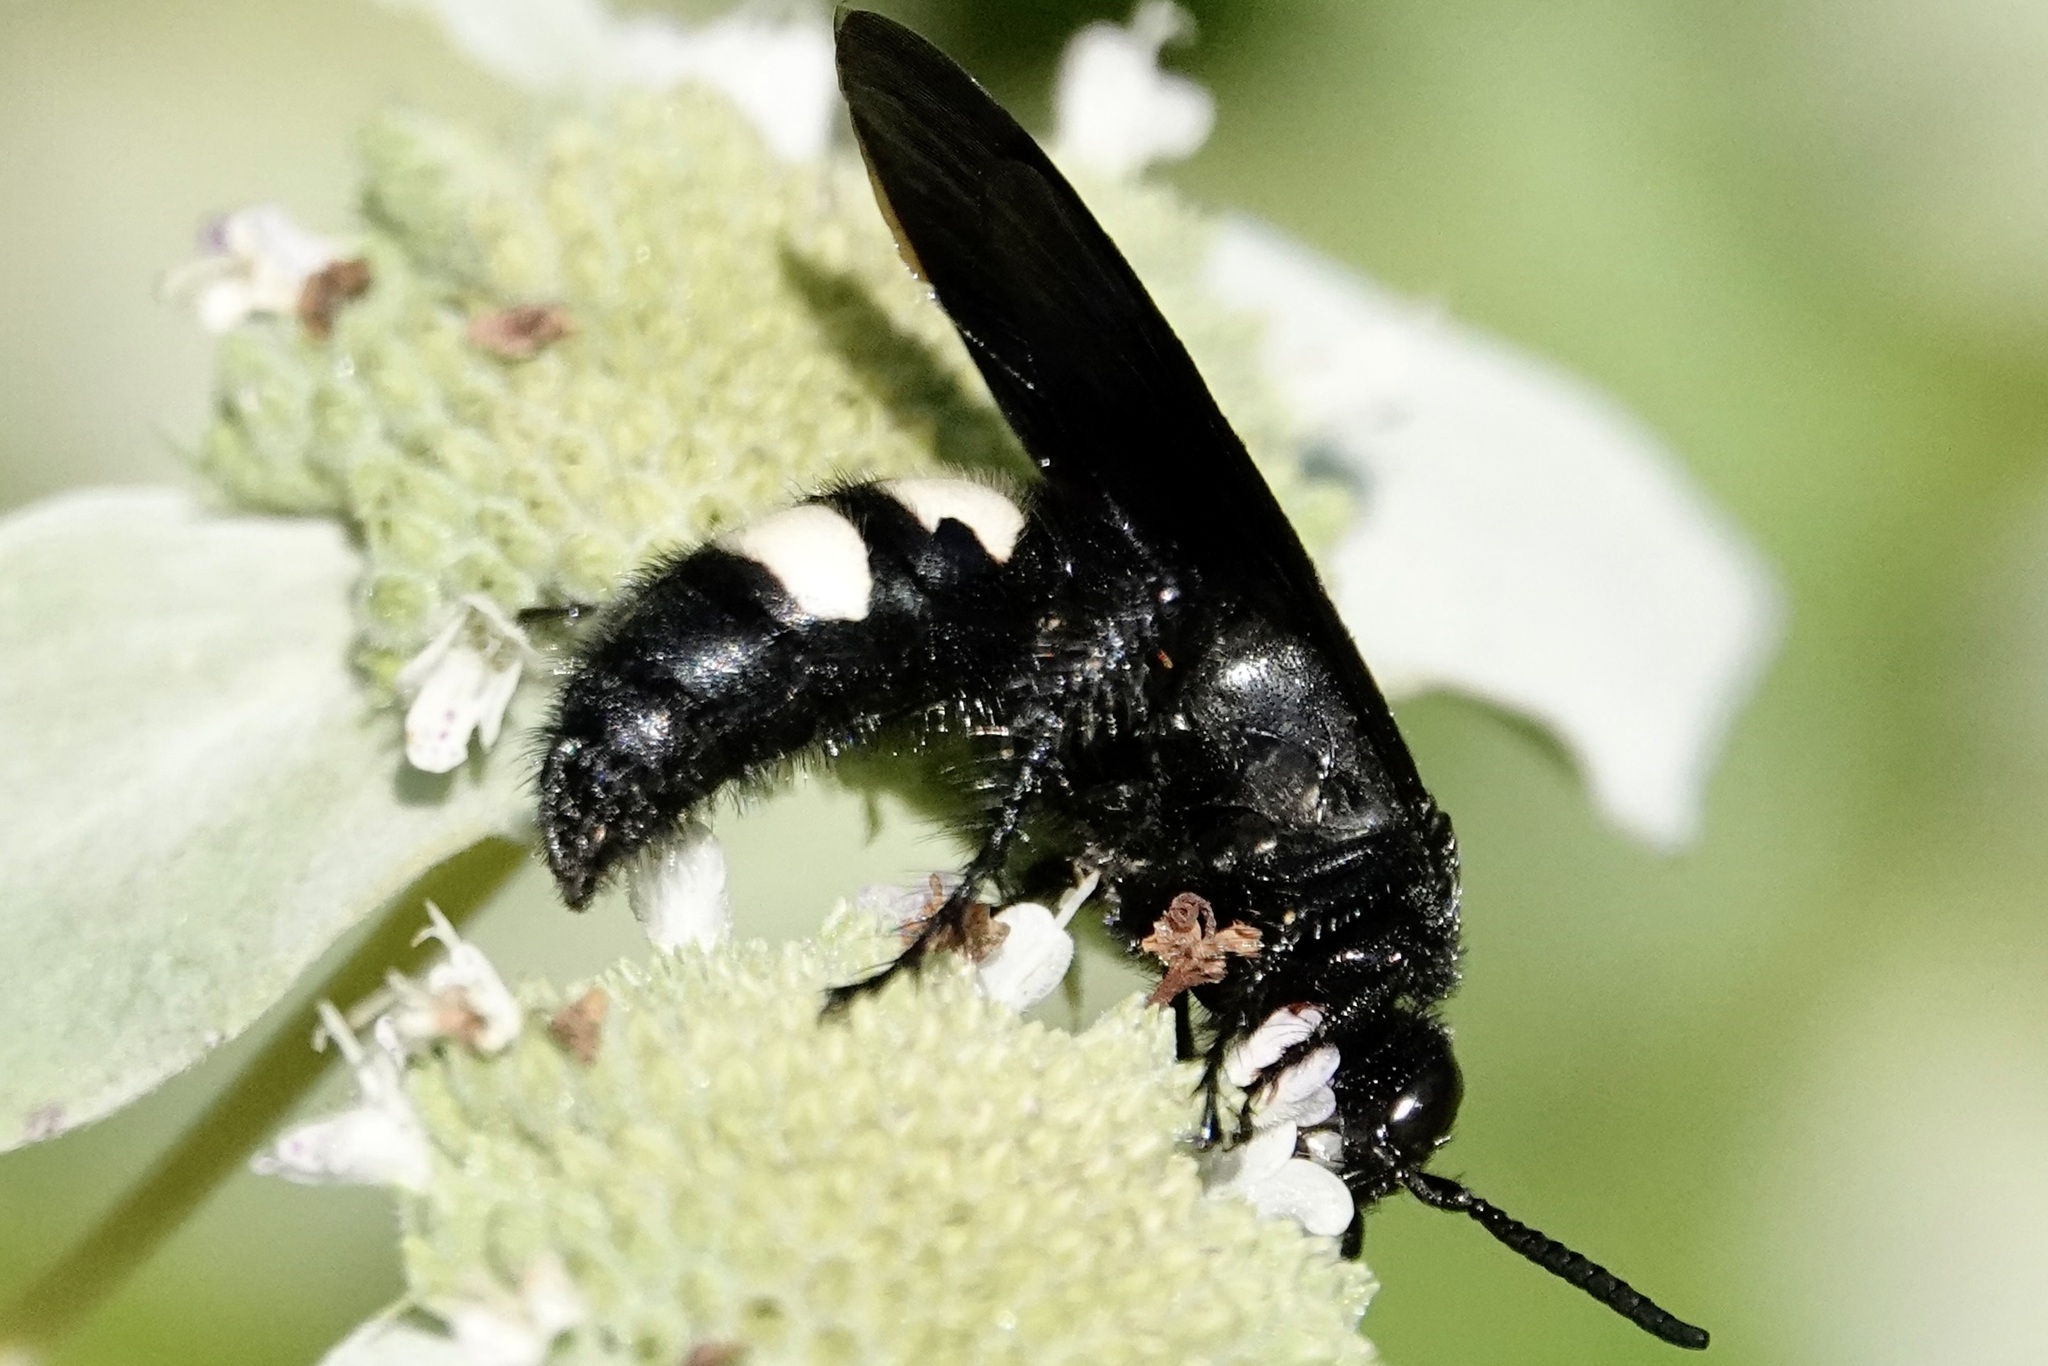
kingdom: Animalia
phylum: Arthropoda
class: Insecta
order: Hymenoptera
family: Scoliidae
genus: Scolia
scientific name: Scolia bicincta
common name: Double-banded scoliid wasp
